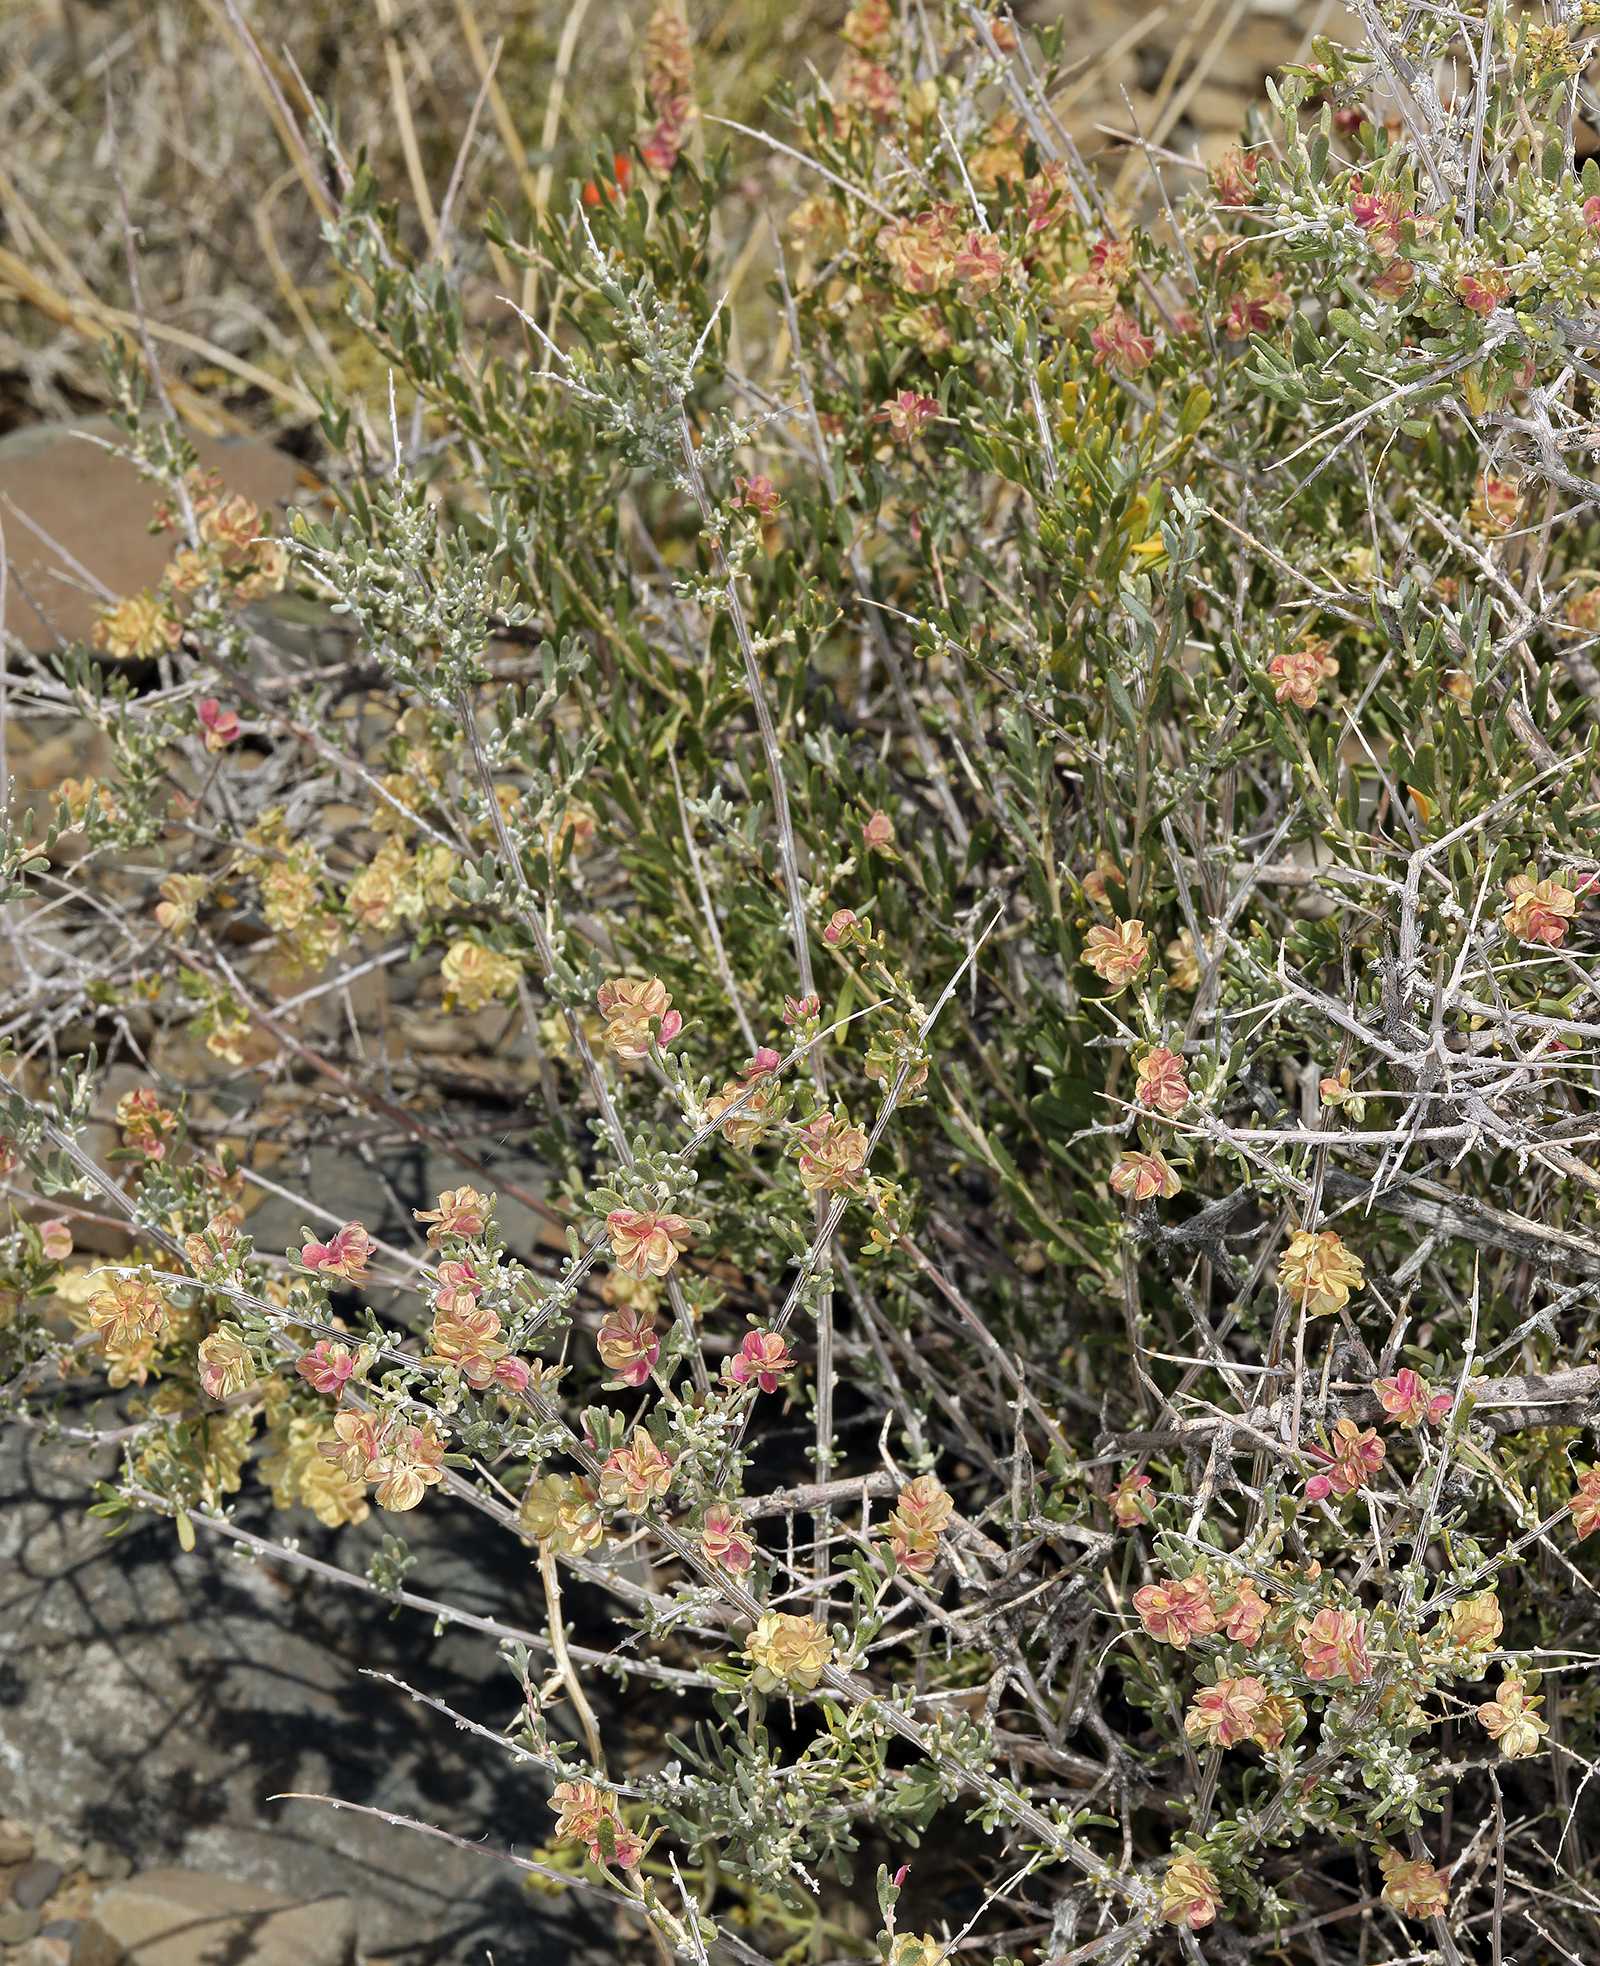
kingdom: Plantae
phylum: Tracheophyta
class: Magnoliopsida
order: Caryophyllales
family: Amaranthaceae
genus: Grayia
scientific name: Grayia spinosa
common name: Spiny hopsage
